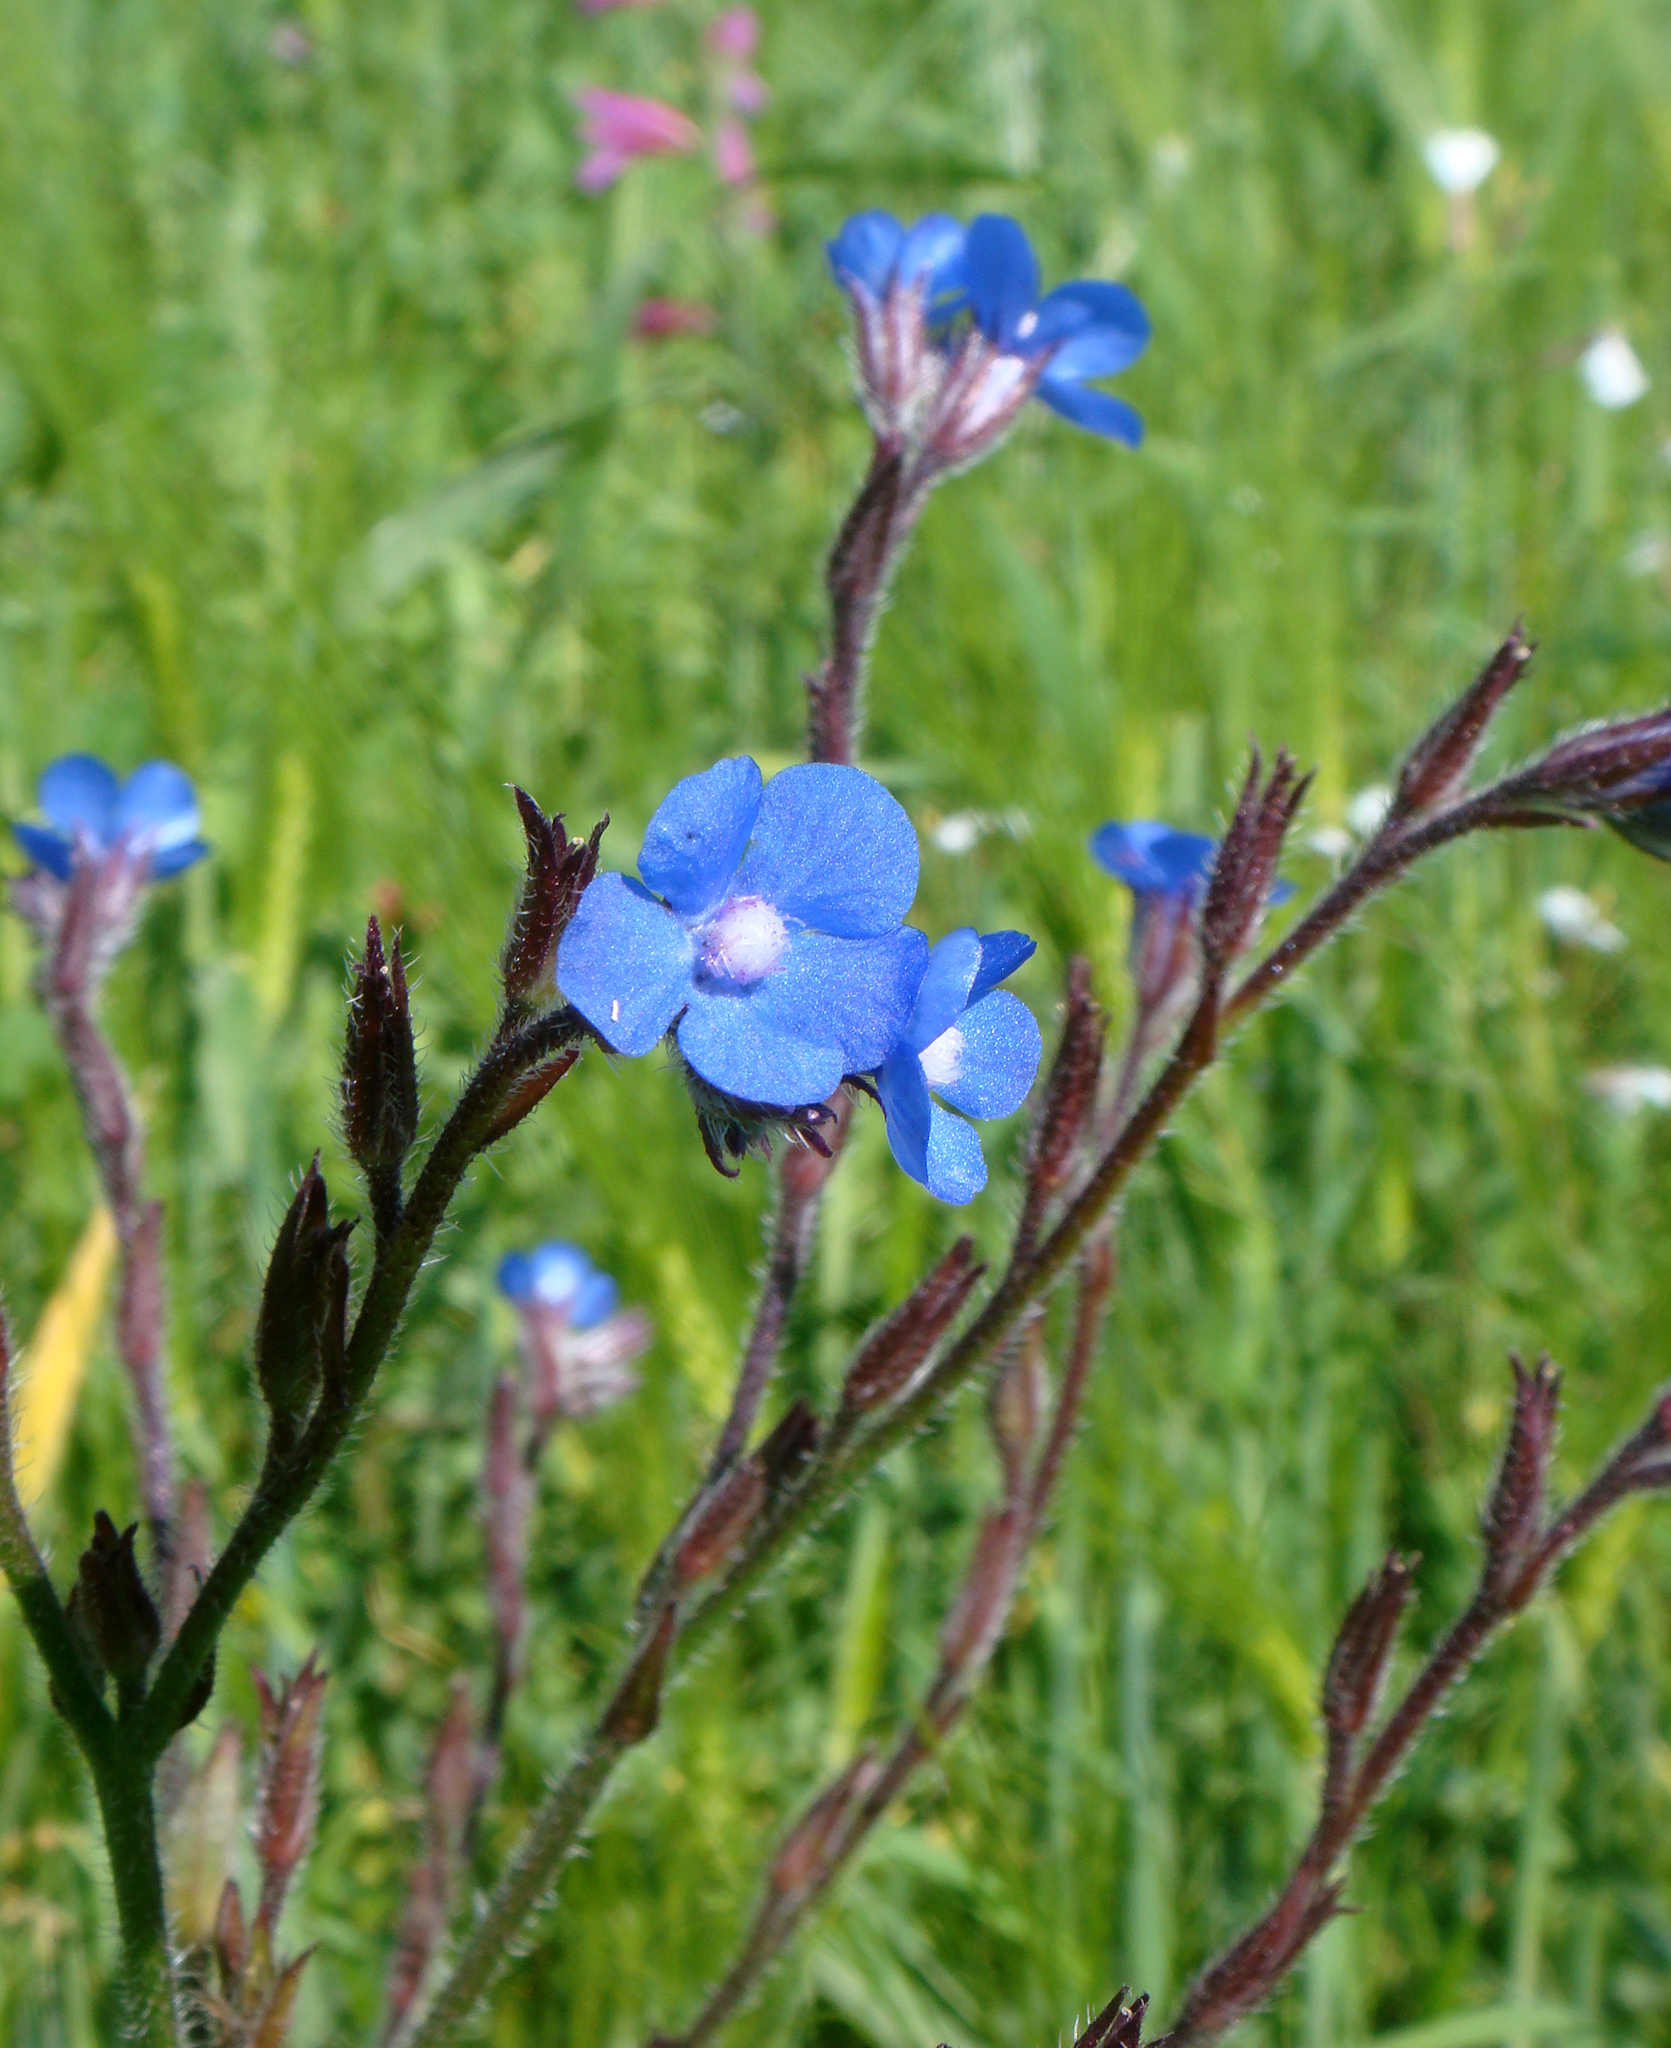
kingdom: Plantae
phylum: Tracheophyta
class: Magnoliopsida
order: Boraginales
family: Boraginaceae
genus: Anchusa
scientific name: Anchusa azurea
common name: Garden anchusa
